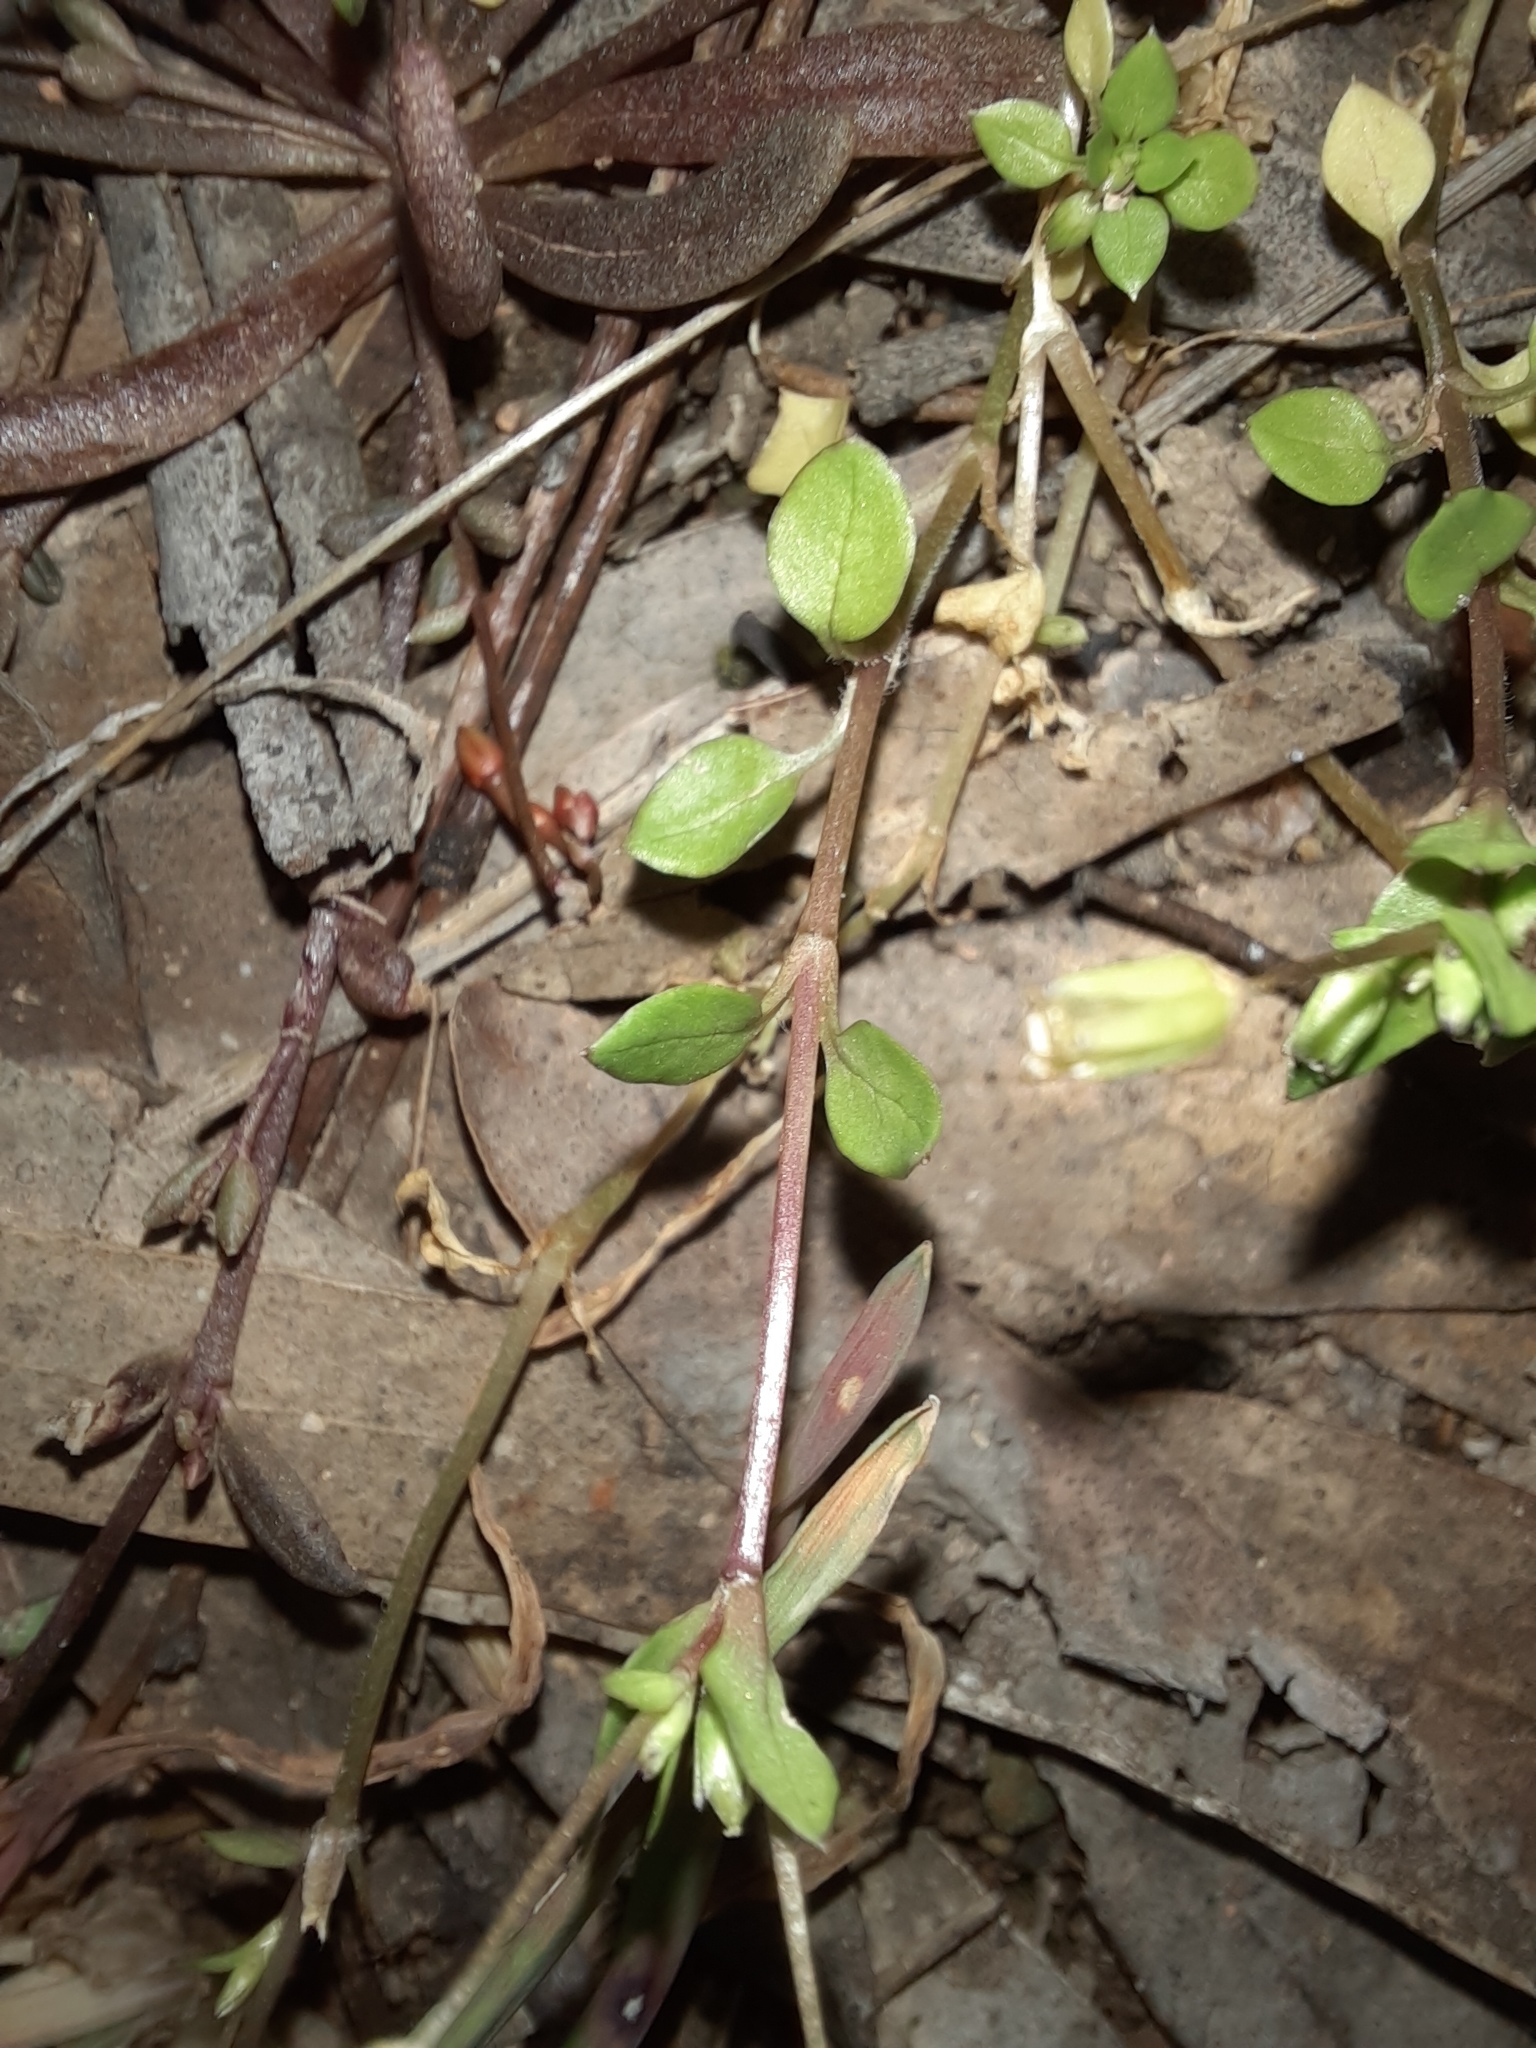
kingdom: Plantae
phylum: Tracheophyta
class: Magnoliopsida
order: Caryophyllales
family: Caryophyllaceae
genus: Stellaria
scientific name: Stellaria media
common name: Common chickweed
